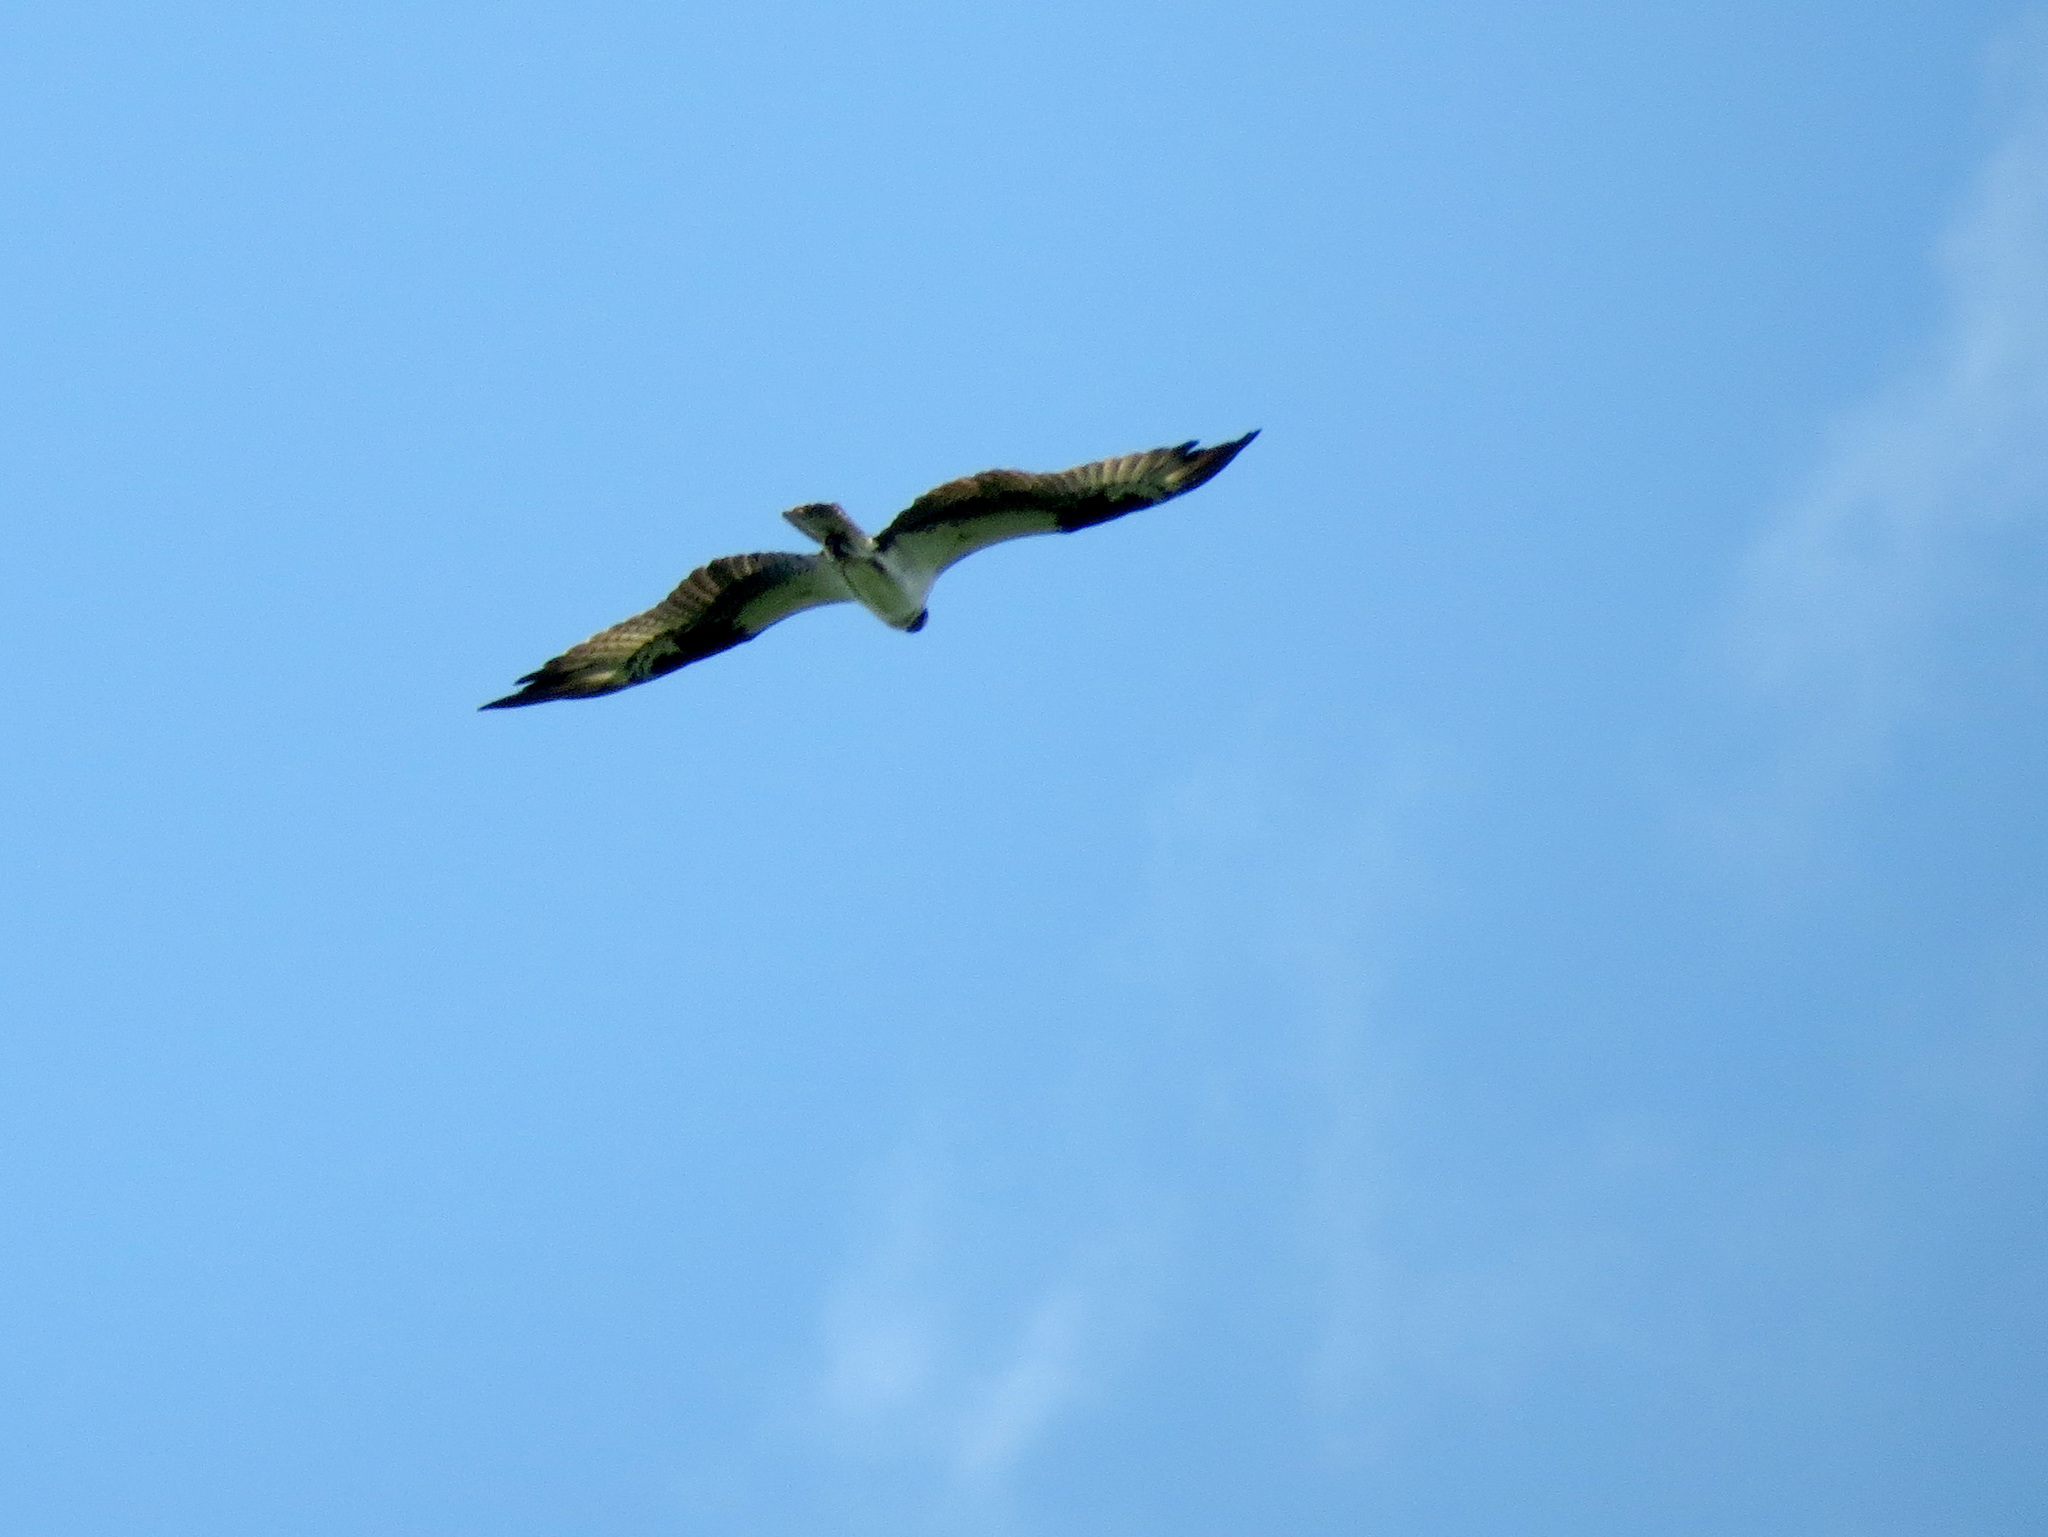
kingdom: Animalia
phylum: Chordata
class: Aves
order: Accipitriformes
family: Pandionidae
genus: Pandion
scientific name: Pandion haliaetus
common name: Osprey
